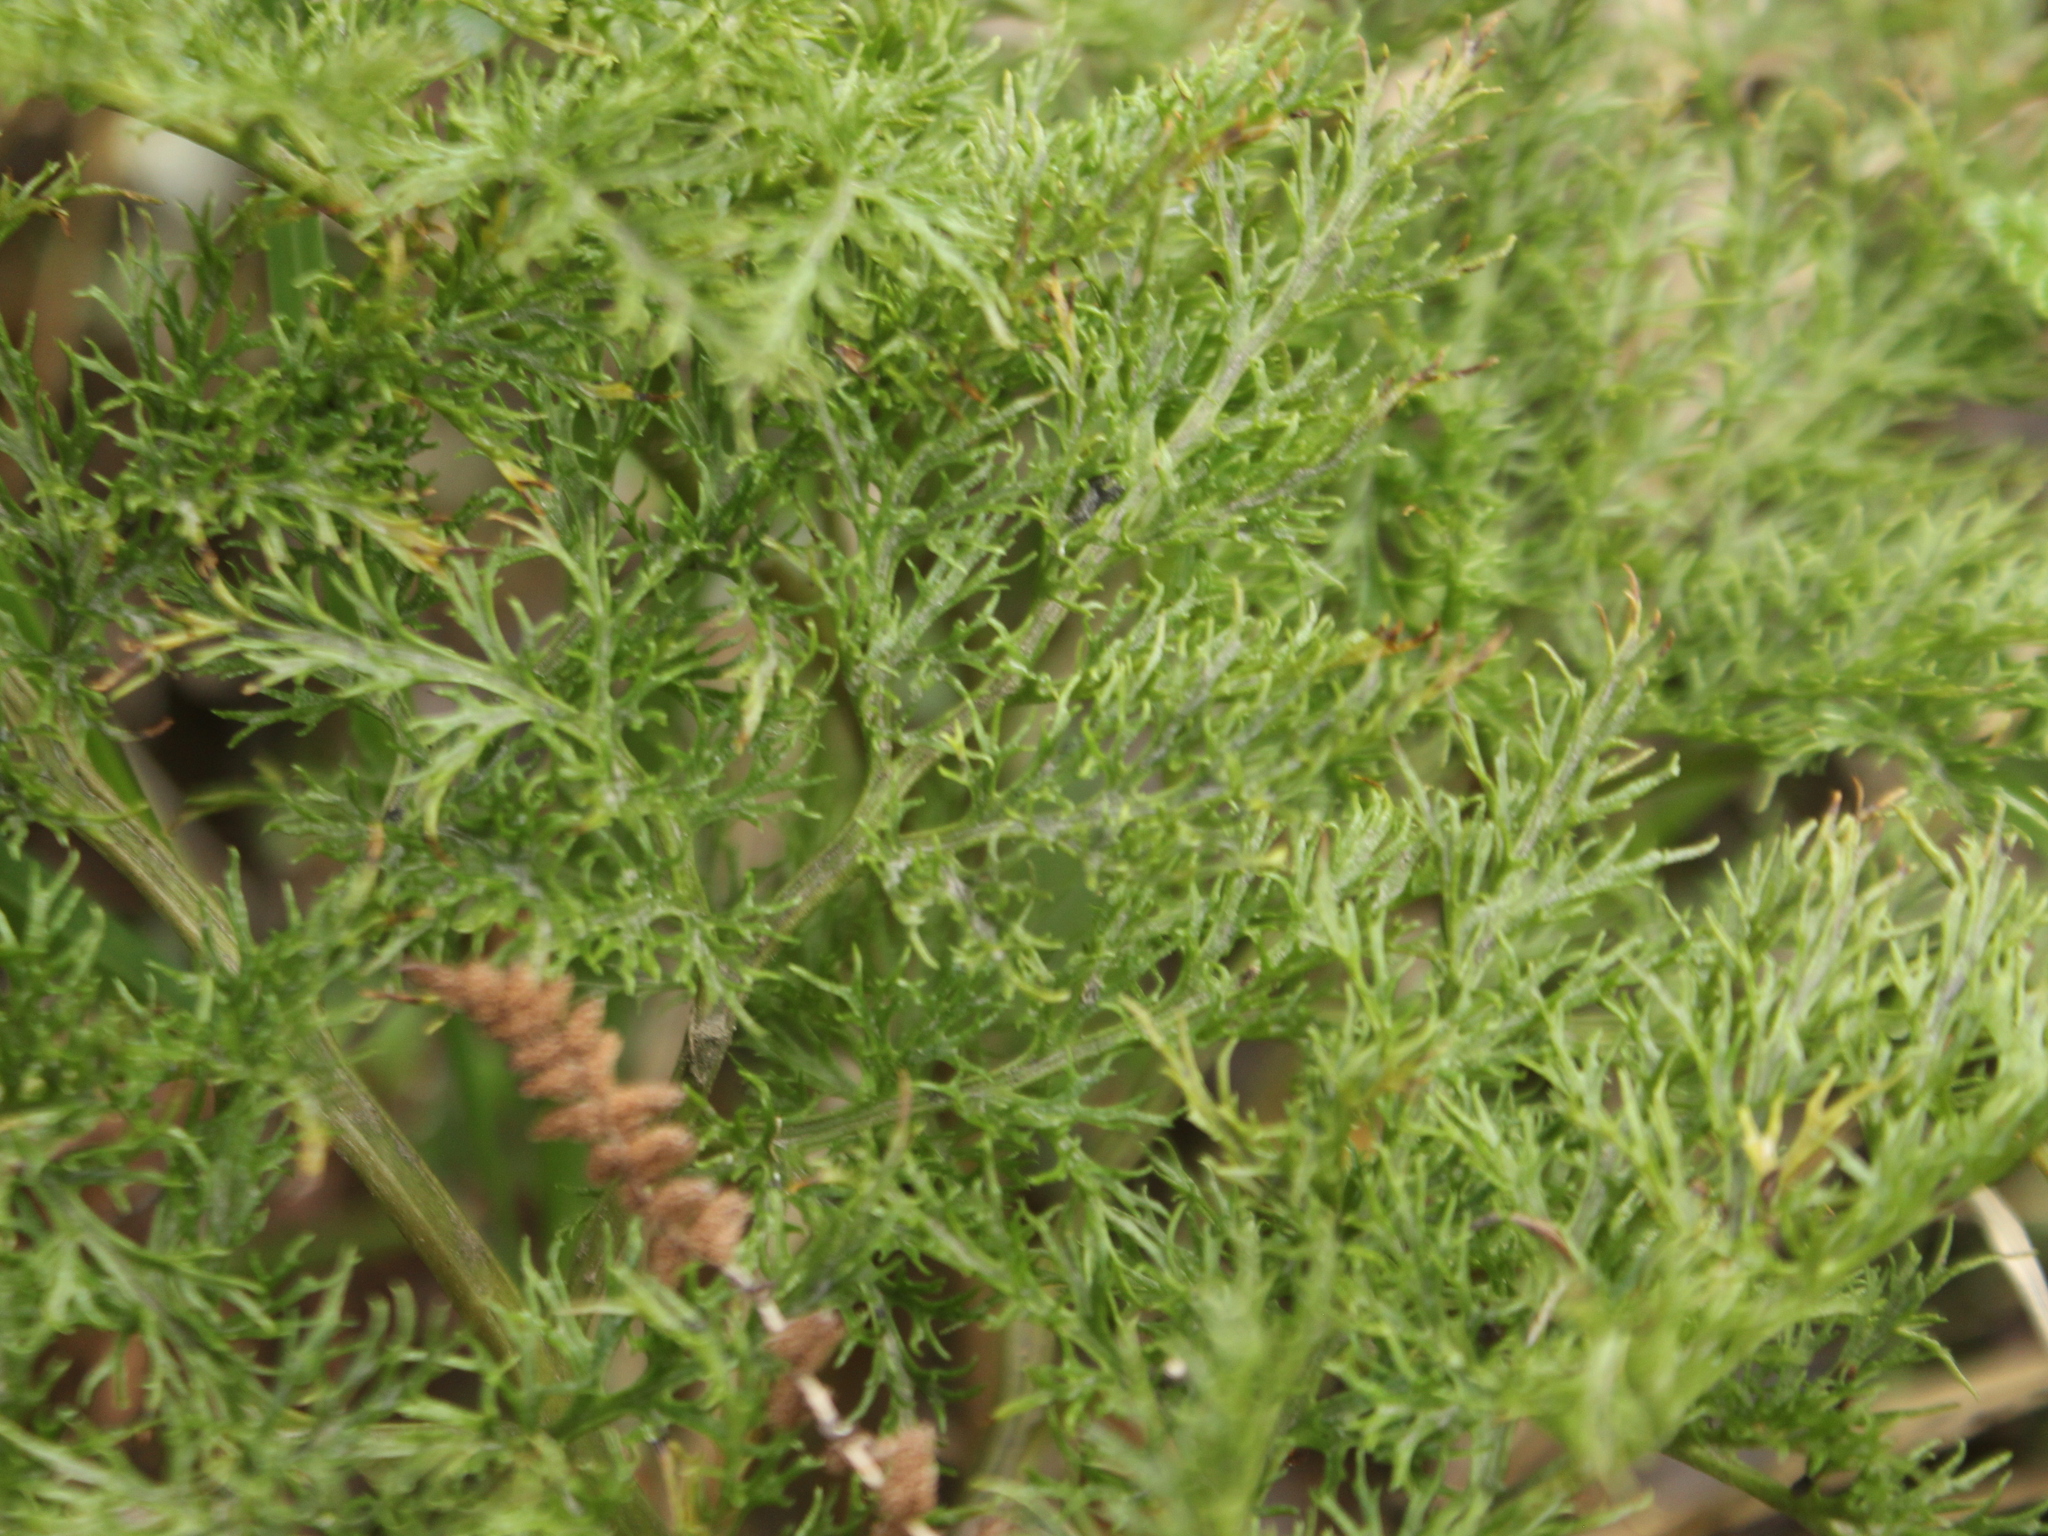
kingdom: Plantae
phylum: Tracheophyta
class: Polypodiopsida
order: Ophioglossales
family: Ophioglossaceae
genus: Sceptridium
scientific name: Sceptridium biforme
